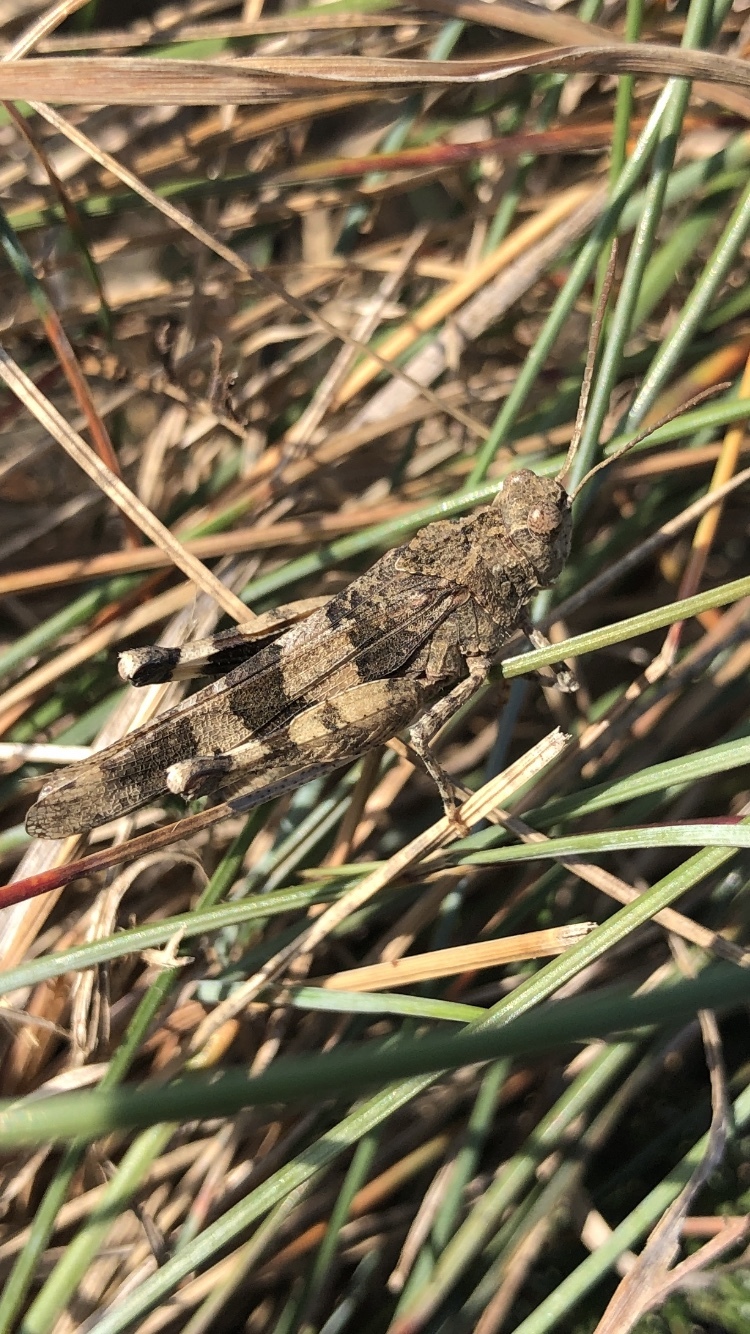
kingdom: Animalia
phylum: Arthropoda
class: Insecta
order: Orthoptera
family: Acrididae
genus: Oedipoda
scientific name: Oedipoda caerulescens
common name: Blue-winged grasshopper
